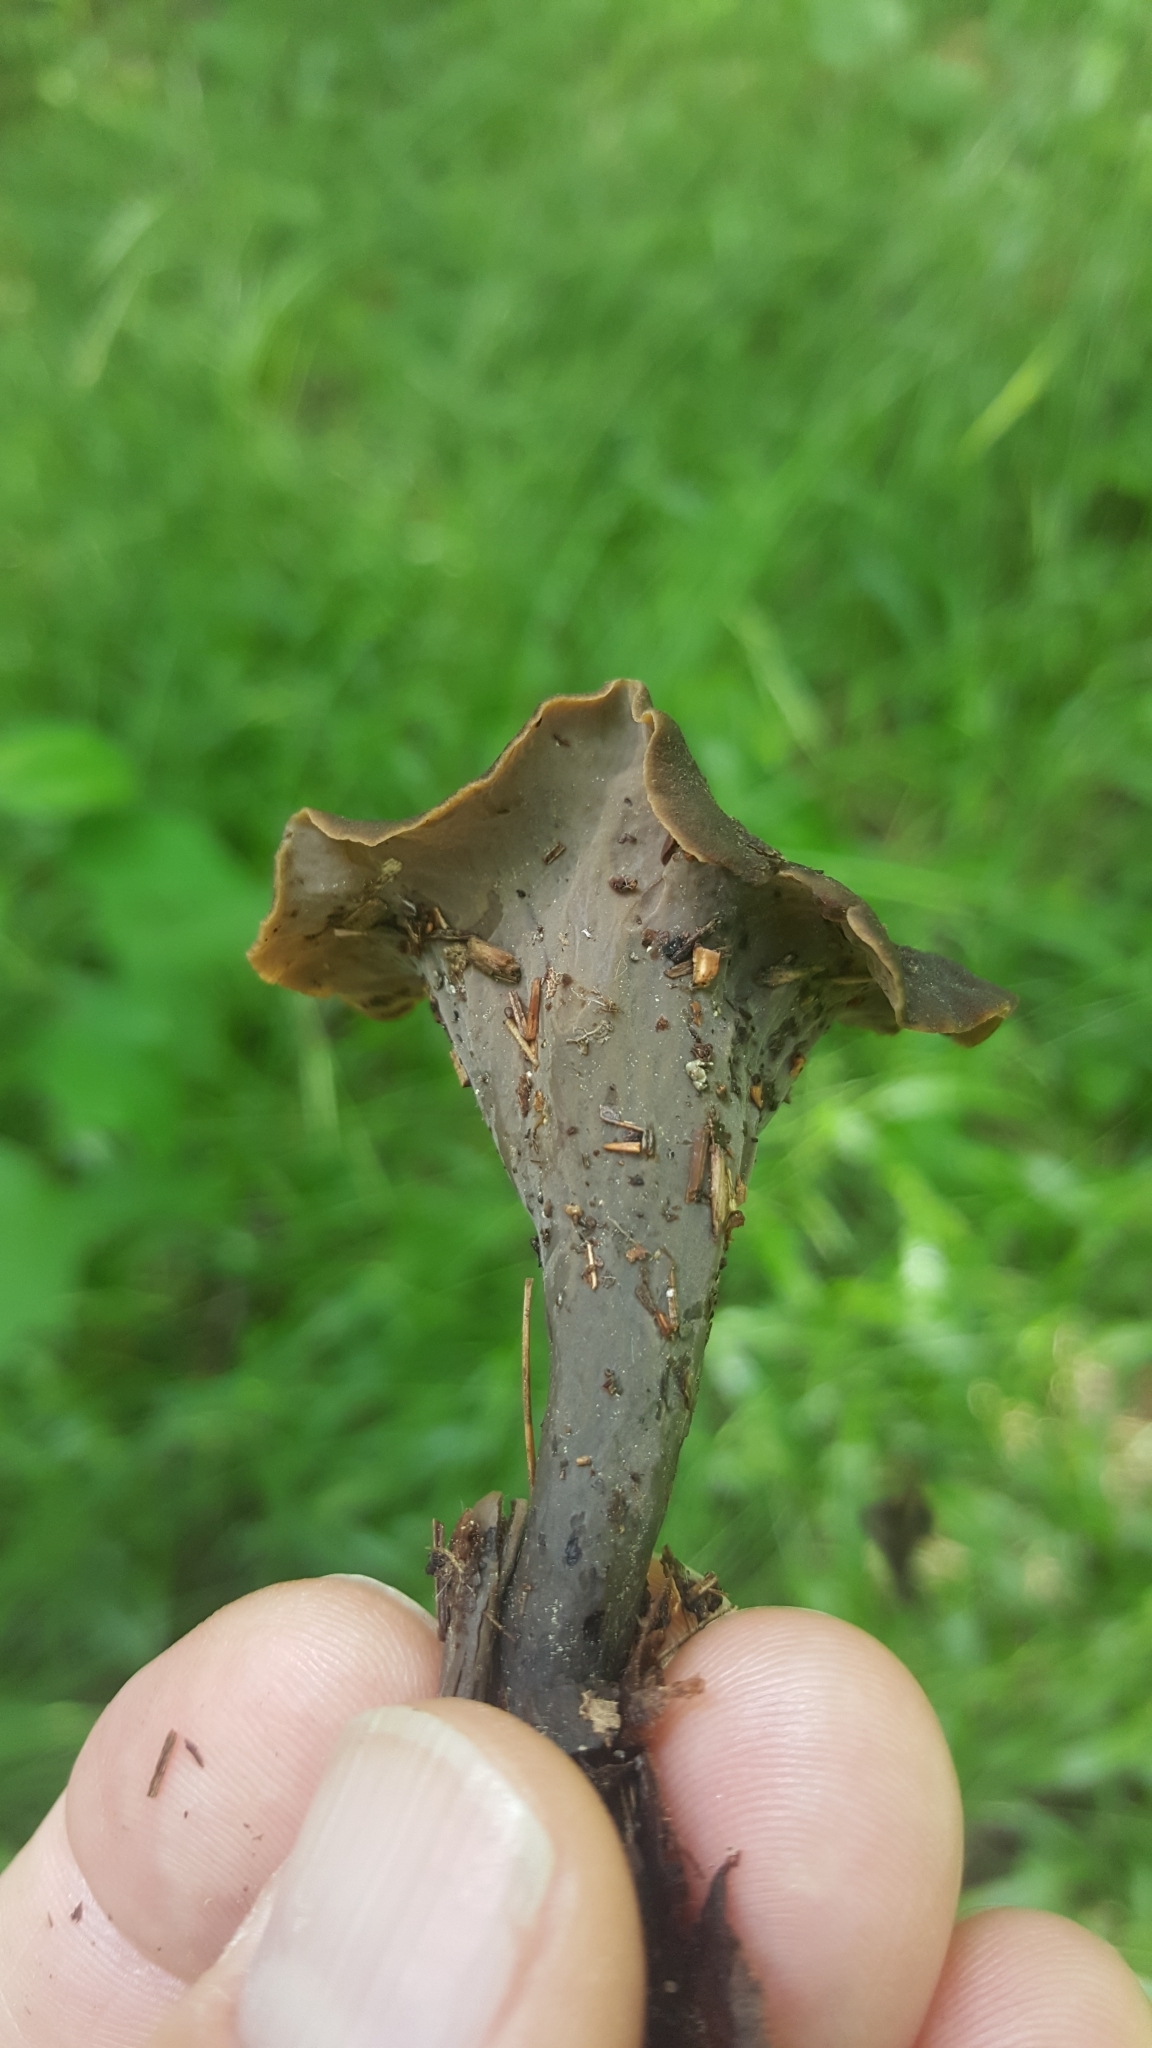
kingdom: Fungi
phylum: Basidiomycota
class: Agaricomycetes
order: Cantharellales
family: Hydnaceae
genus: Craterellus
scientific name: Craterellus cornucopioides
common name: Horn of plenty
